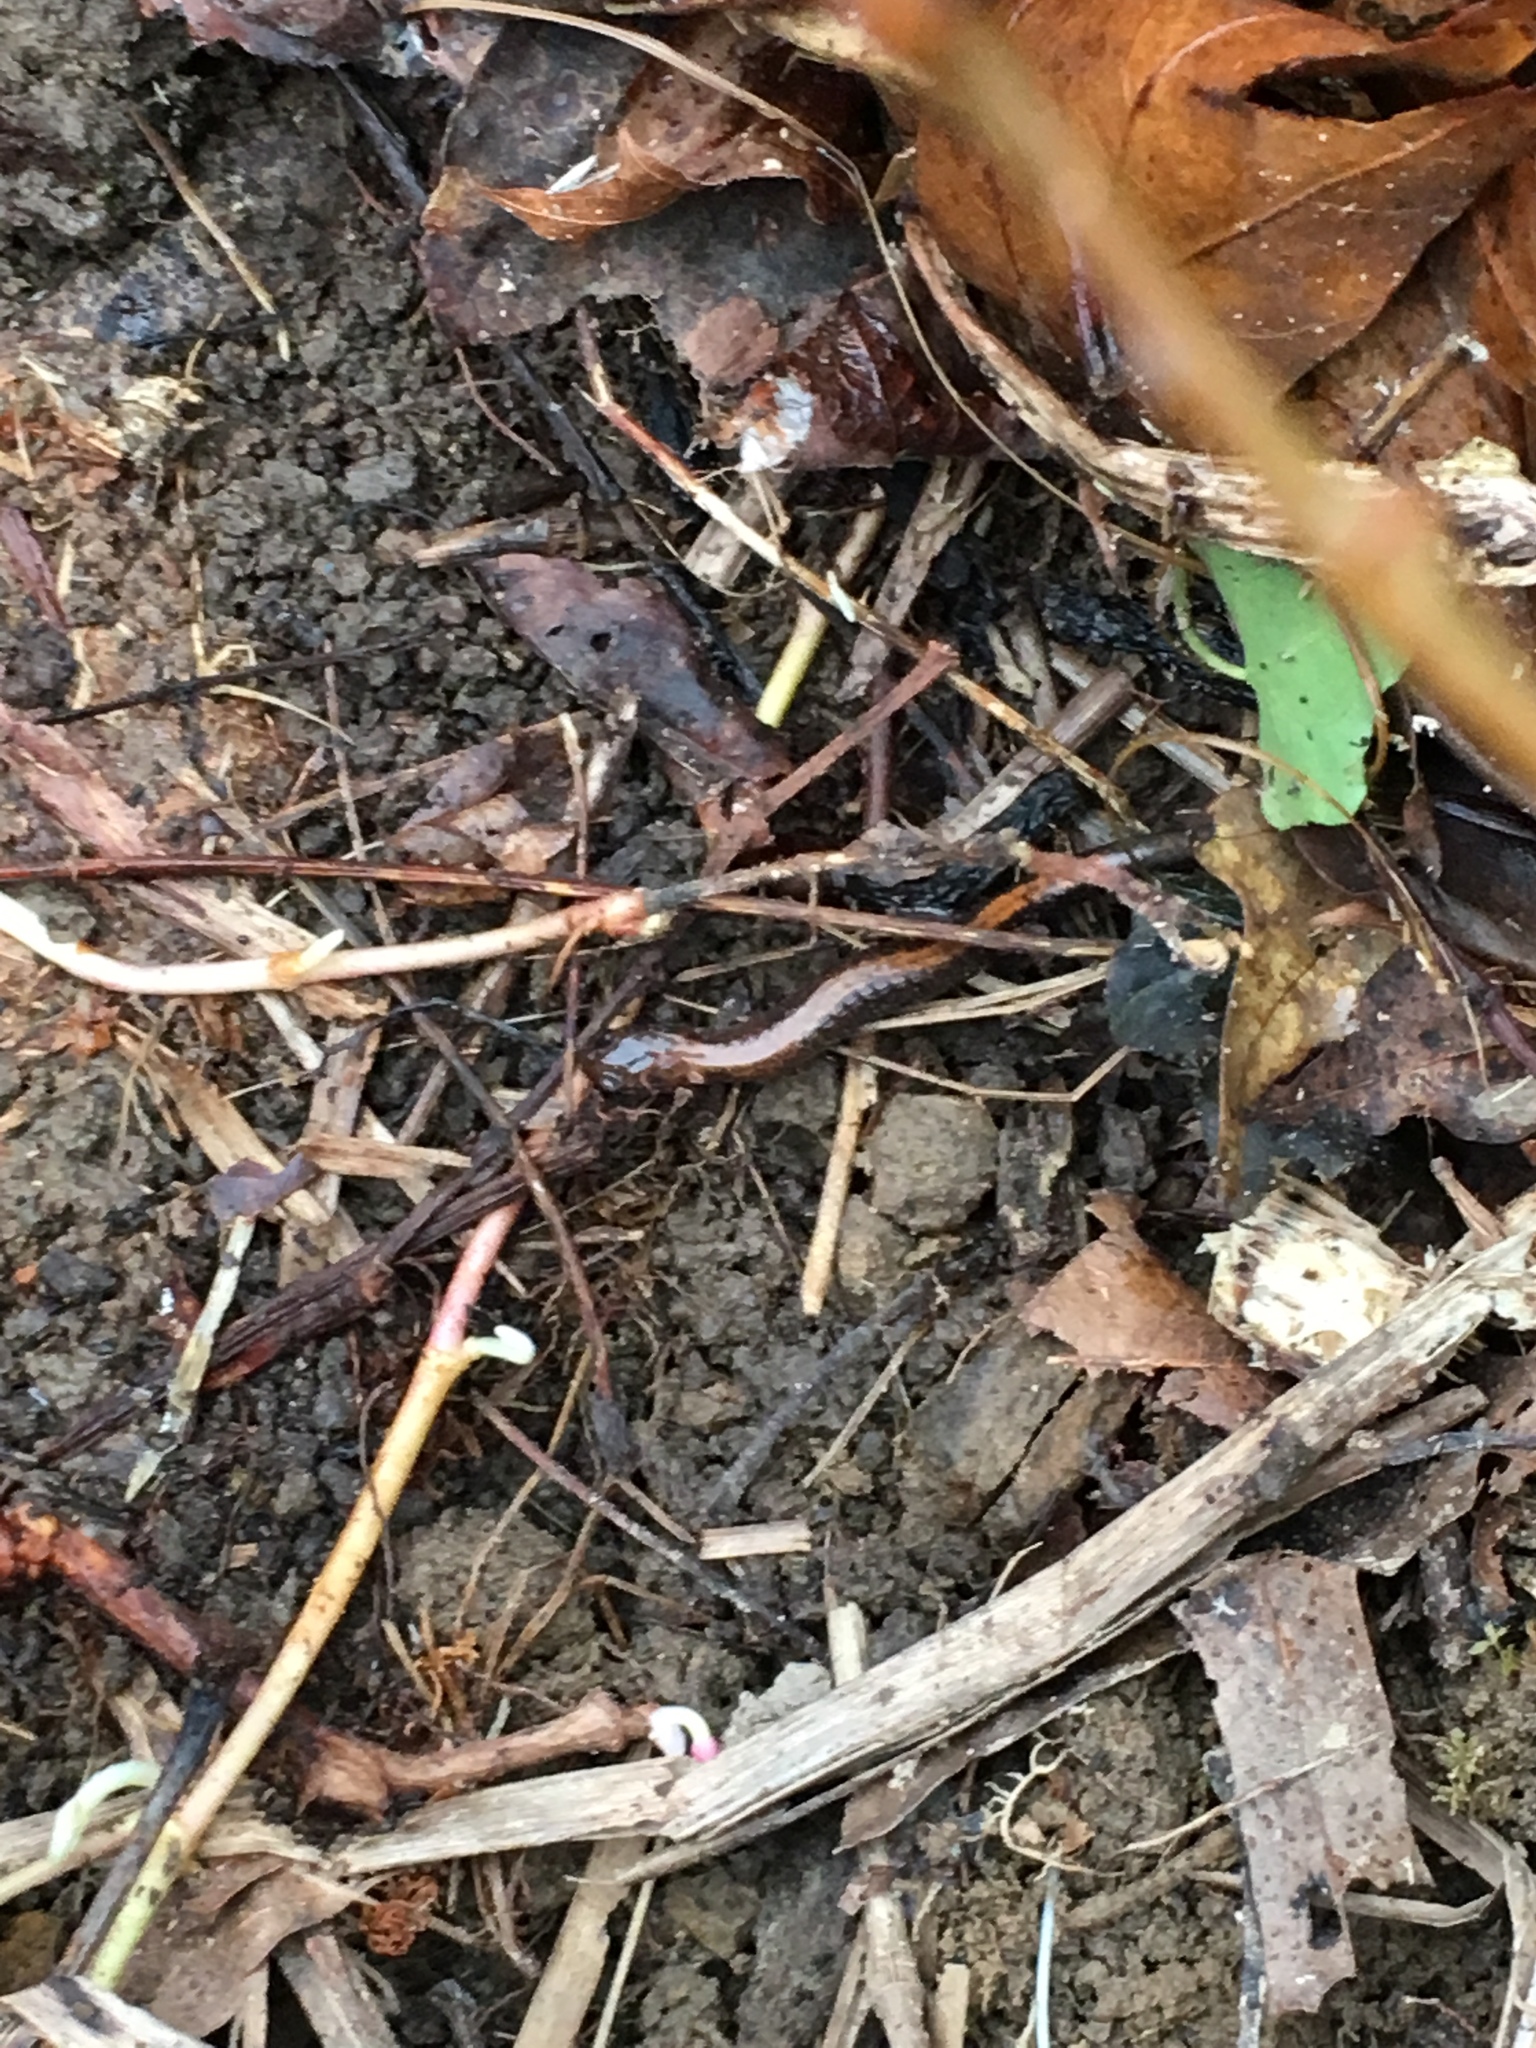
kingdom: Animalia
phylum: Chordata
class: Amphibia
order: Caudata
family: Plethodontidae
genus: Plethodon
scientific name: Plethodon cinereus
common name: Redback salamander
